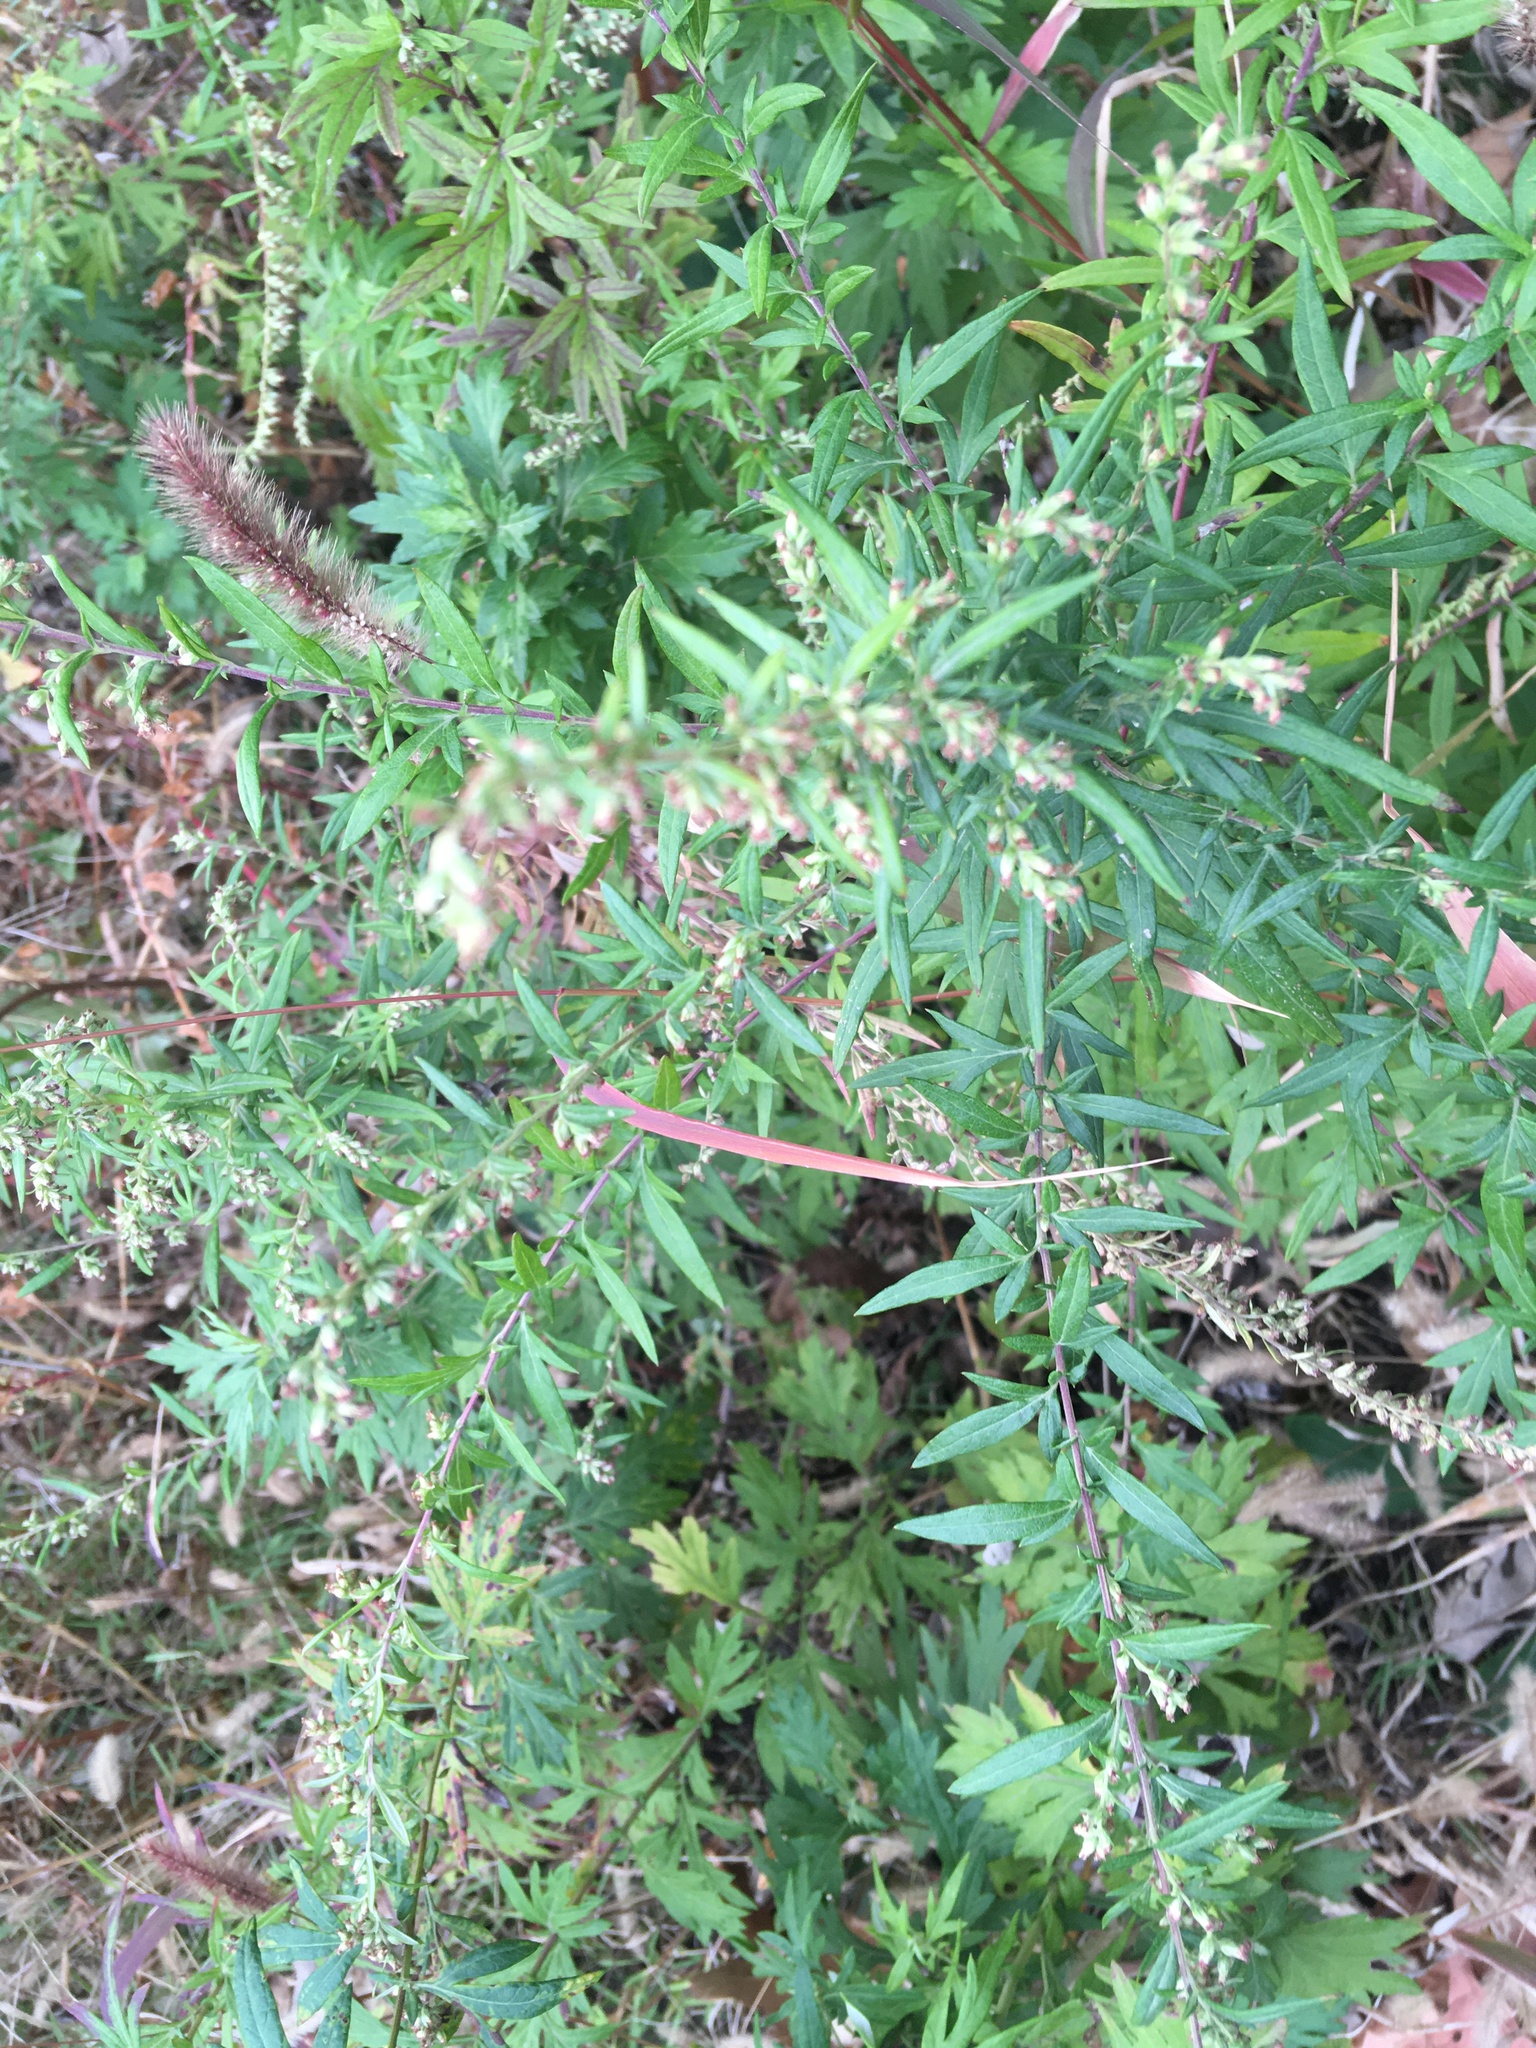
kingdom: Plantae
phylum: Tracheophyta
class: Magnoliopsida
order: Asterales
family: Asteraceae
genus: Artemisia
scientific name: Artemisia vulgaris
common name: Mugwort
